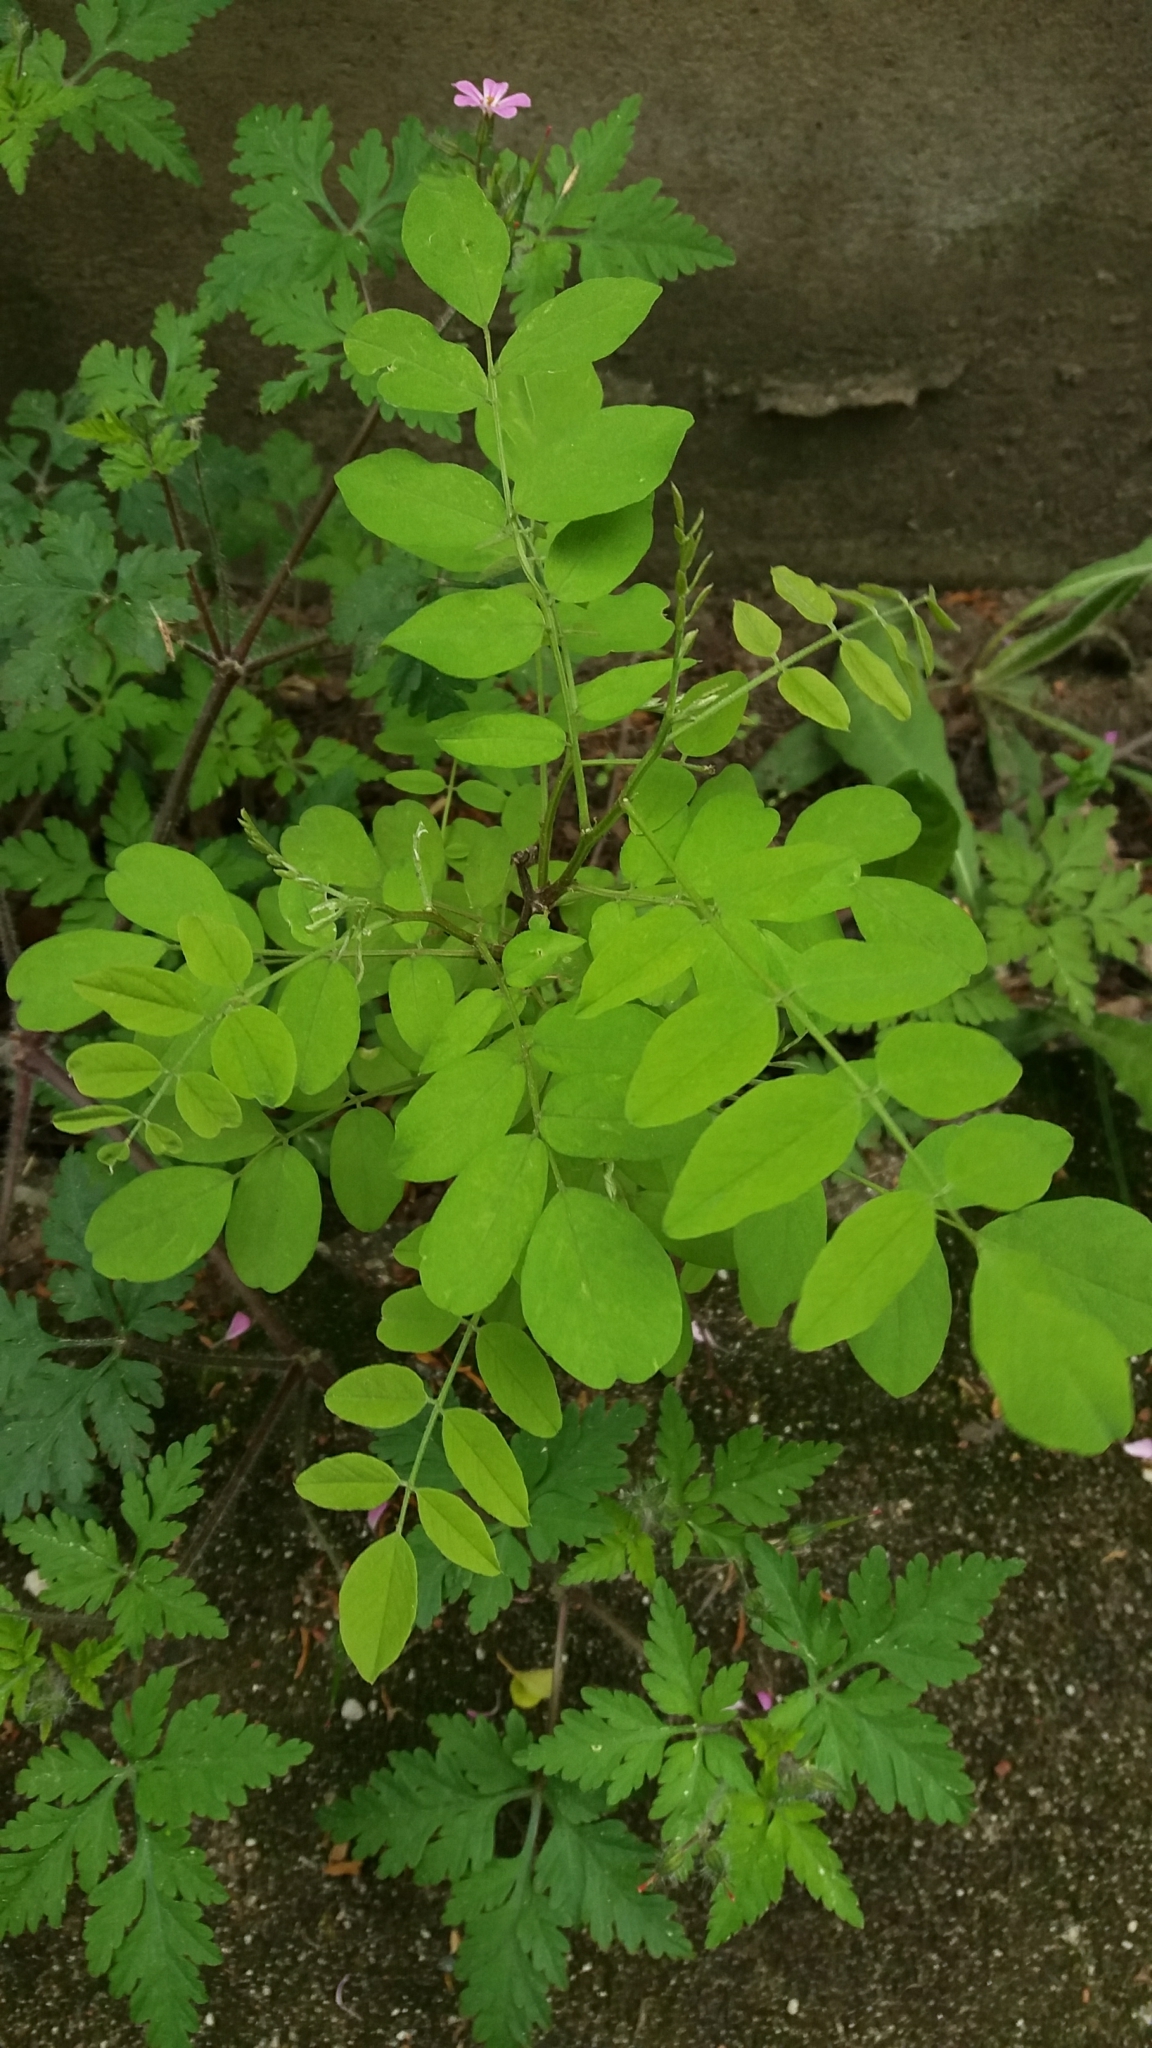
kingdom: Plantae
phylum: Tracheophyta
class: Magnoliopsida
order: Fabales
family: Fabaceae
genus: Robinia
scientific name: Robinia pseudoacacia
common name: Black locust
